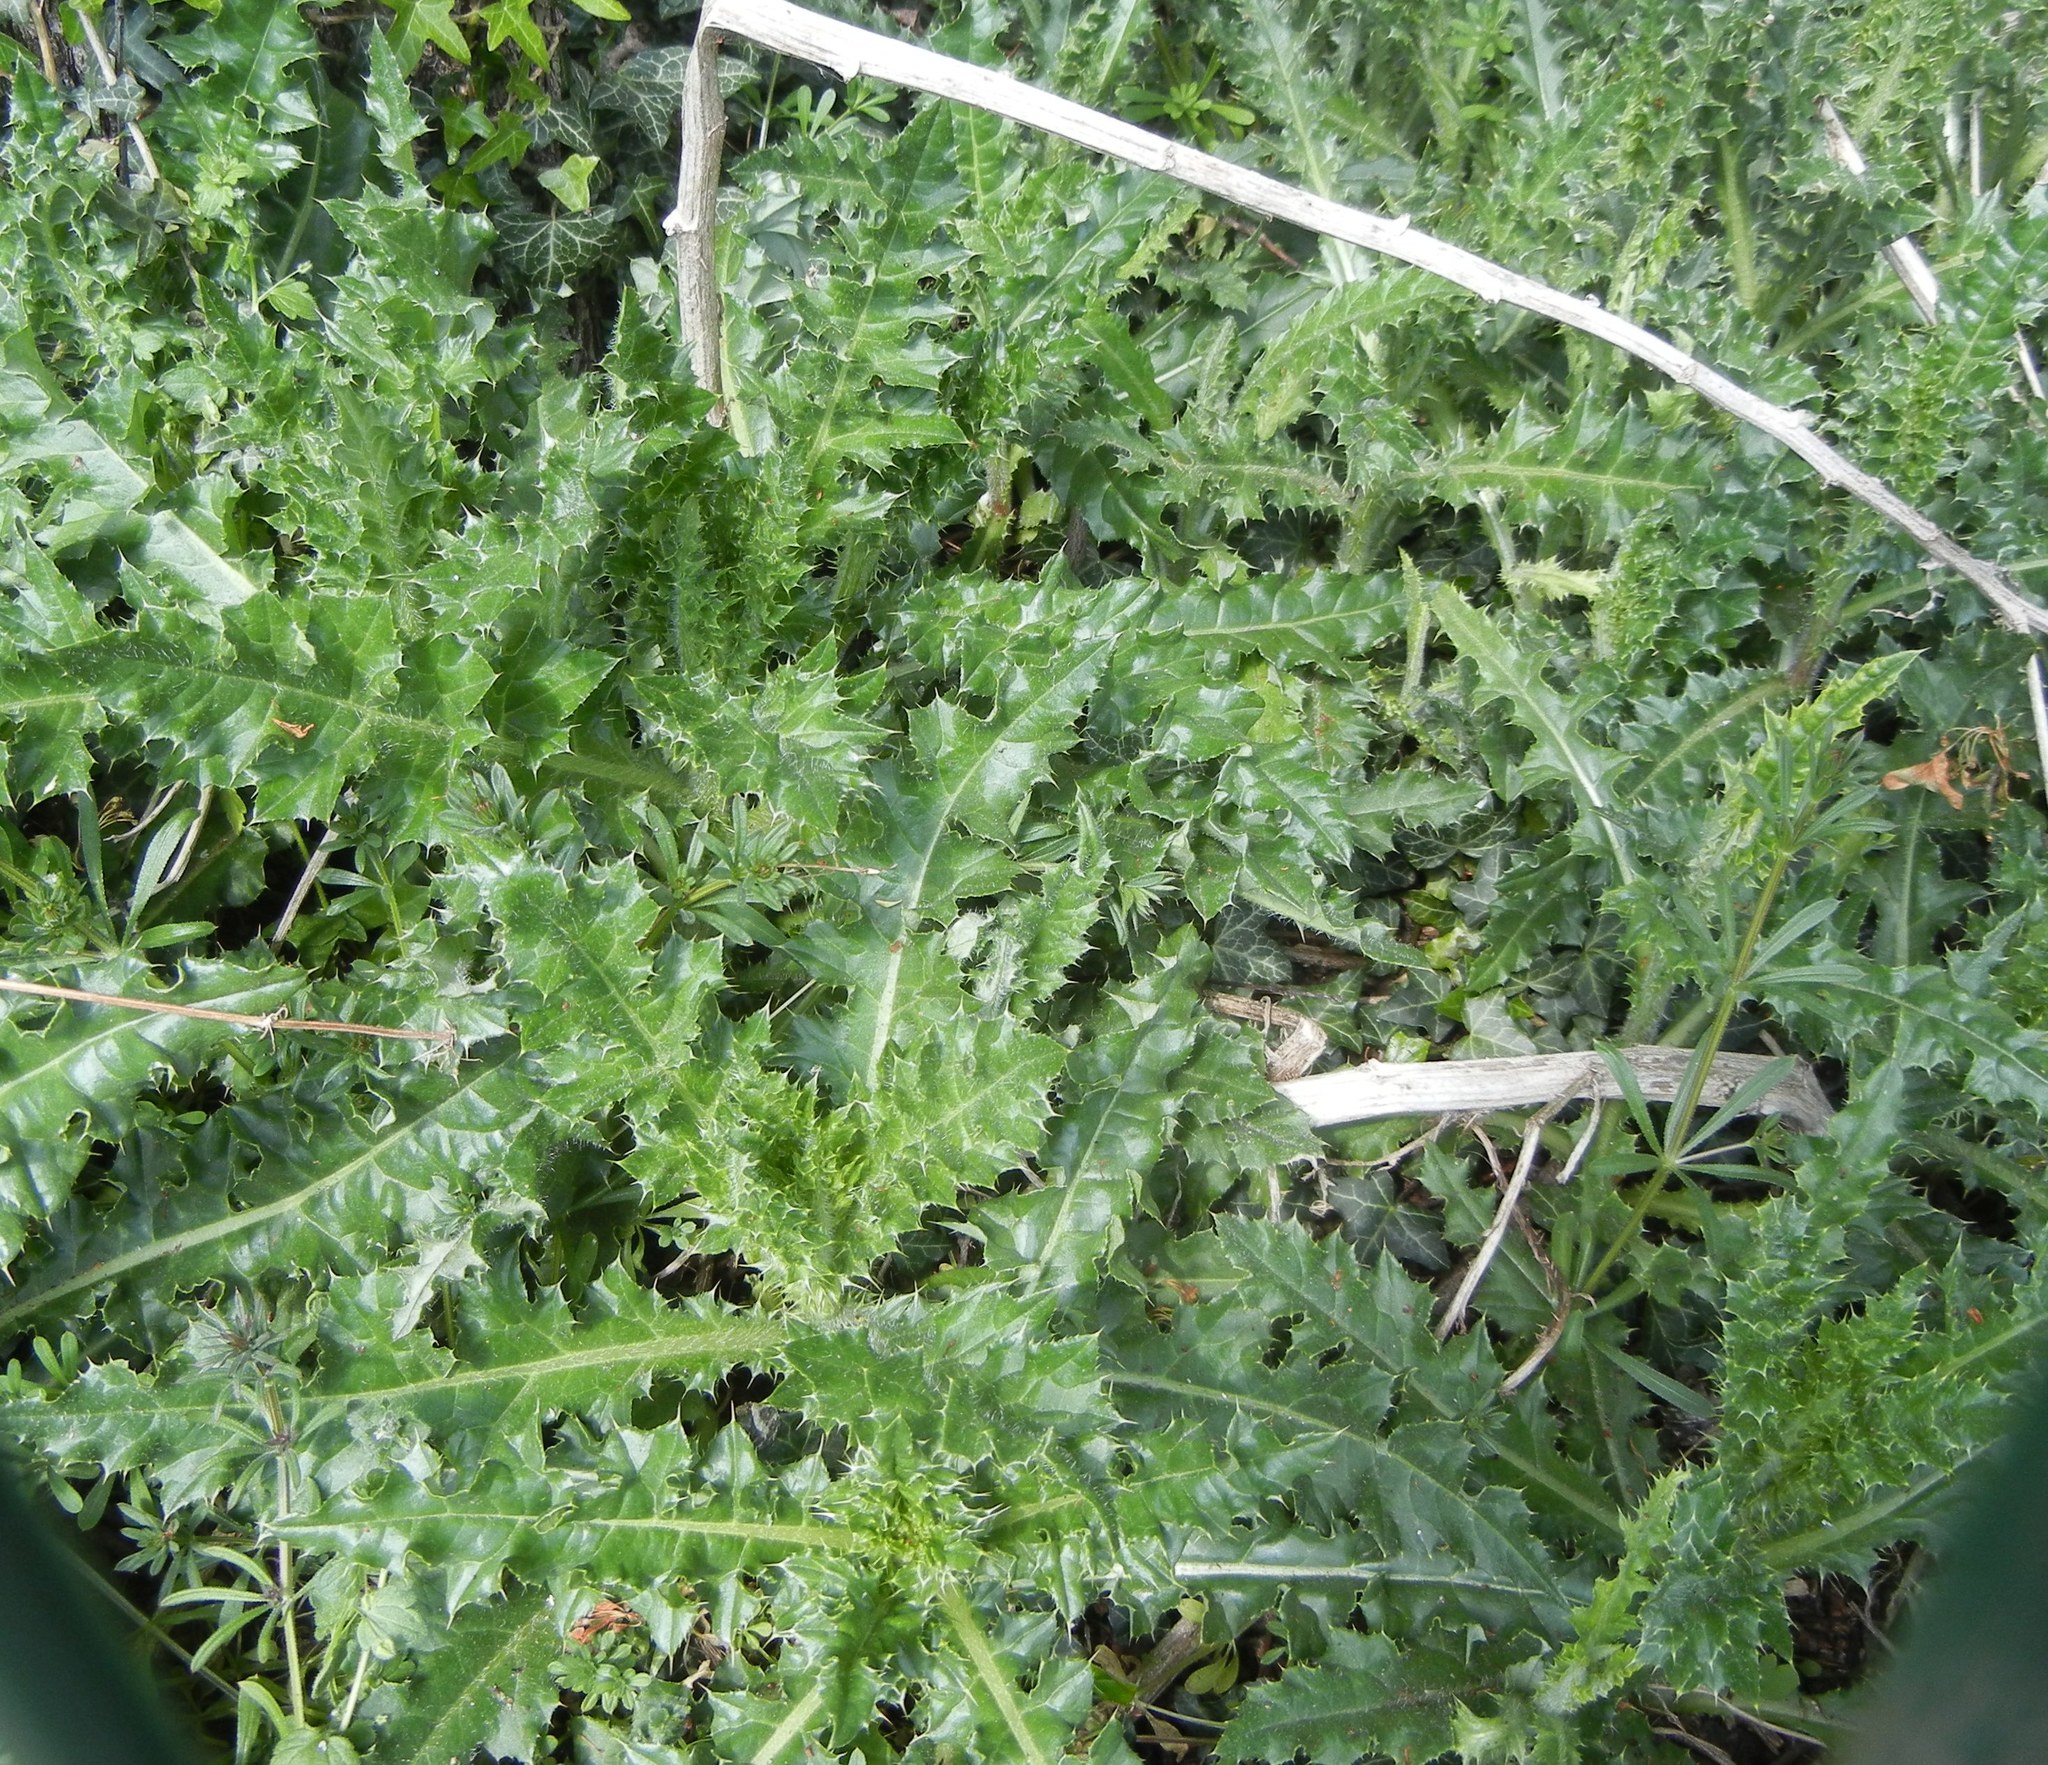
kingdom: Plantae
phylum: Tracheophyta
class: Magnoliopsida
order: Asterales
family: Asteraceae
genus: Cirsium
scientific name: Cirsium arvense
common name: Creeping thistle
